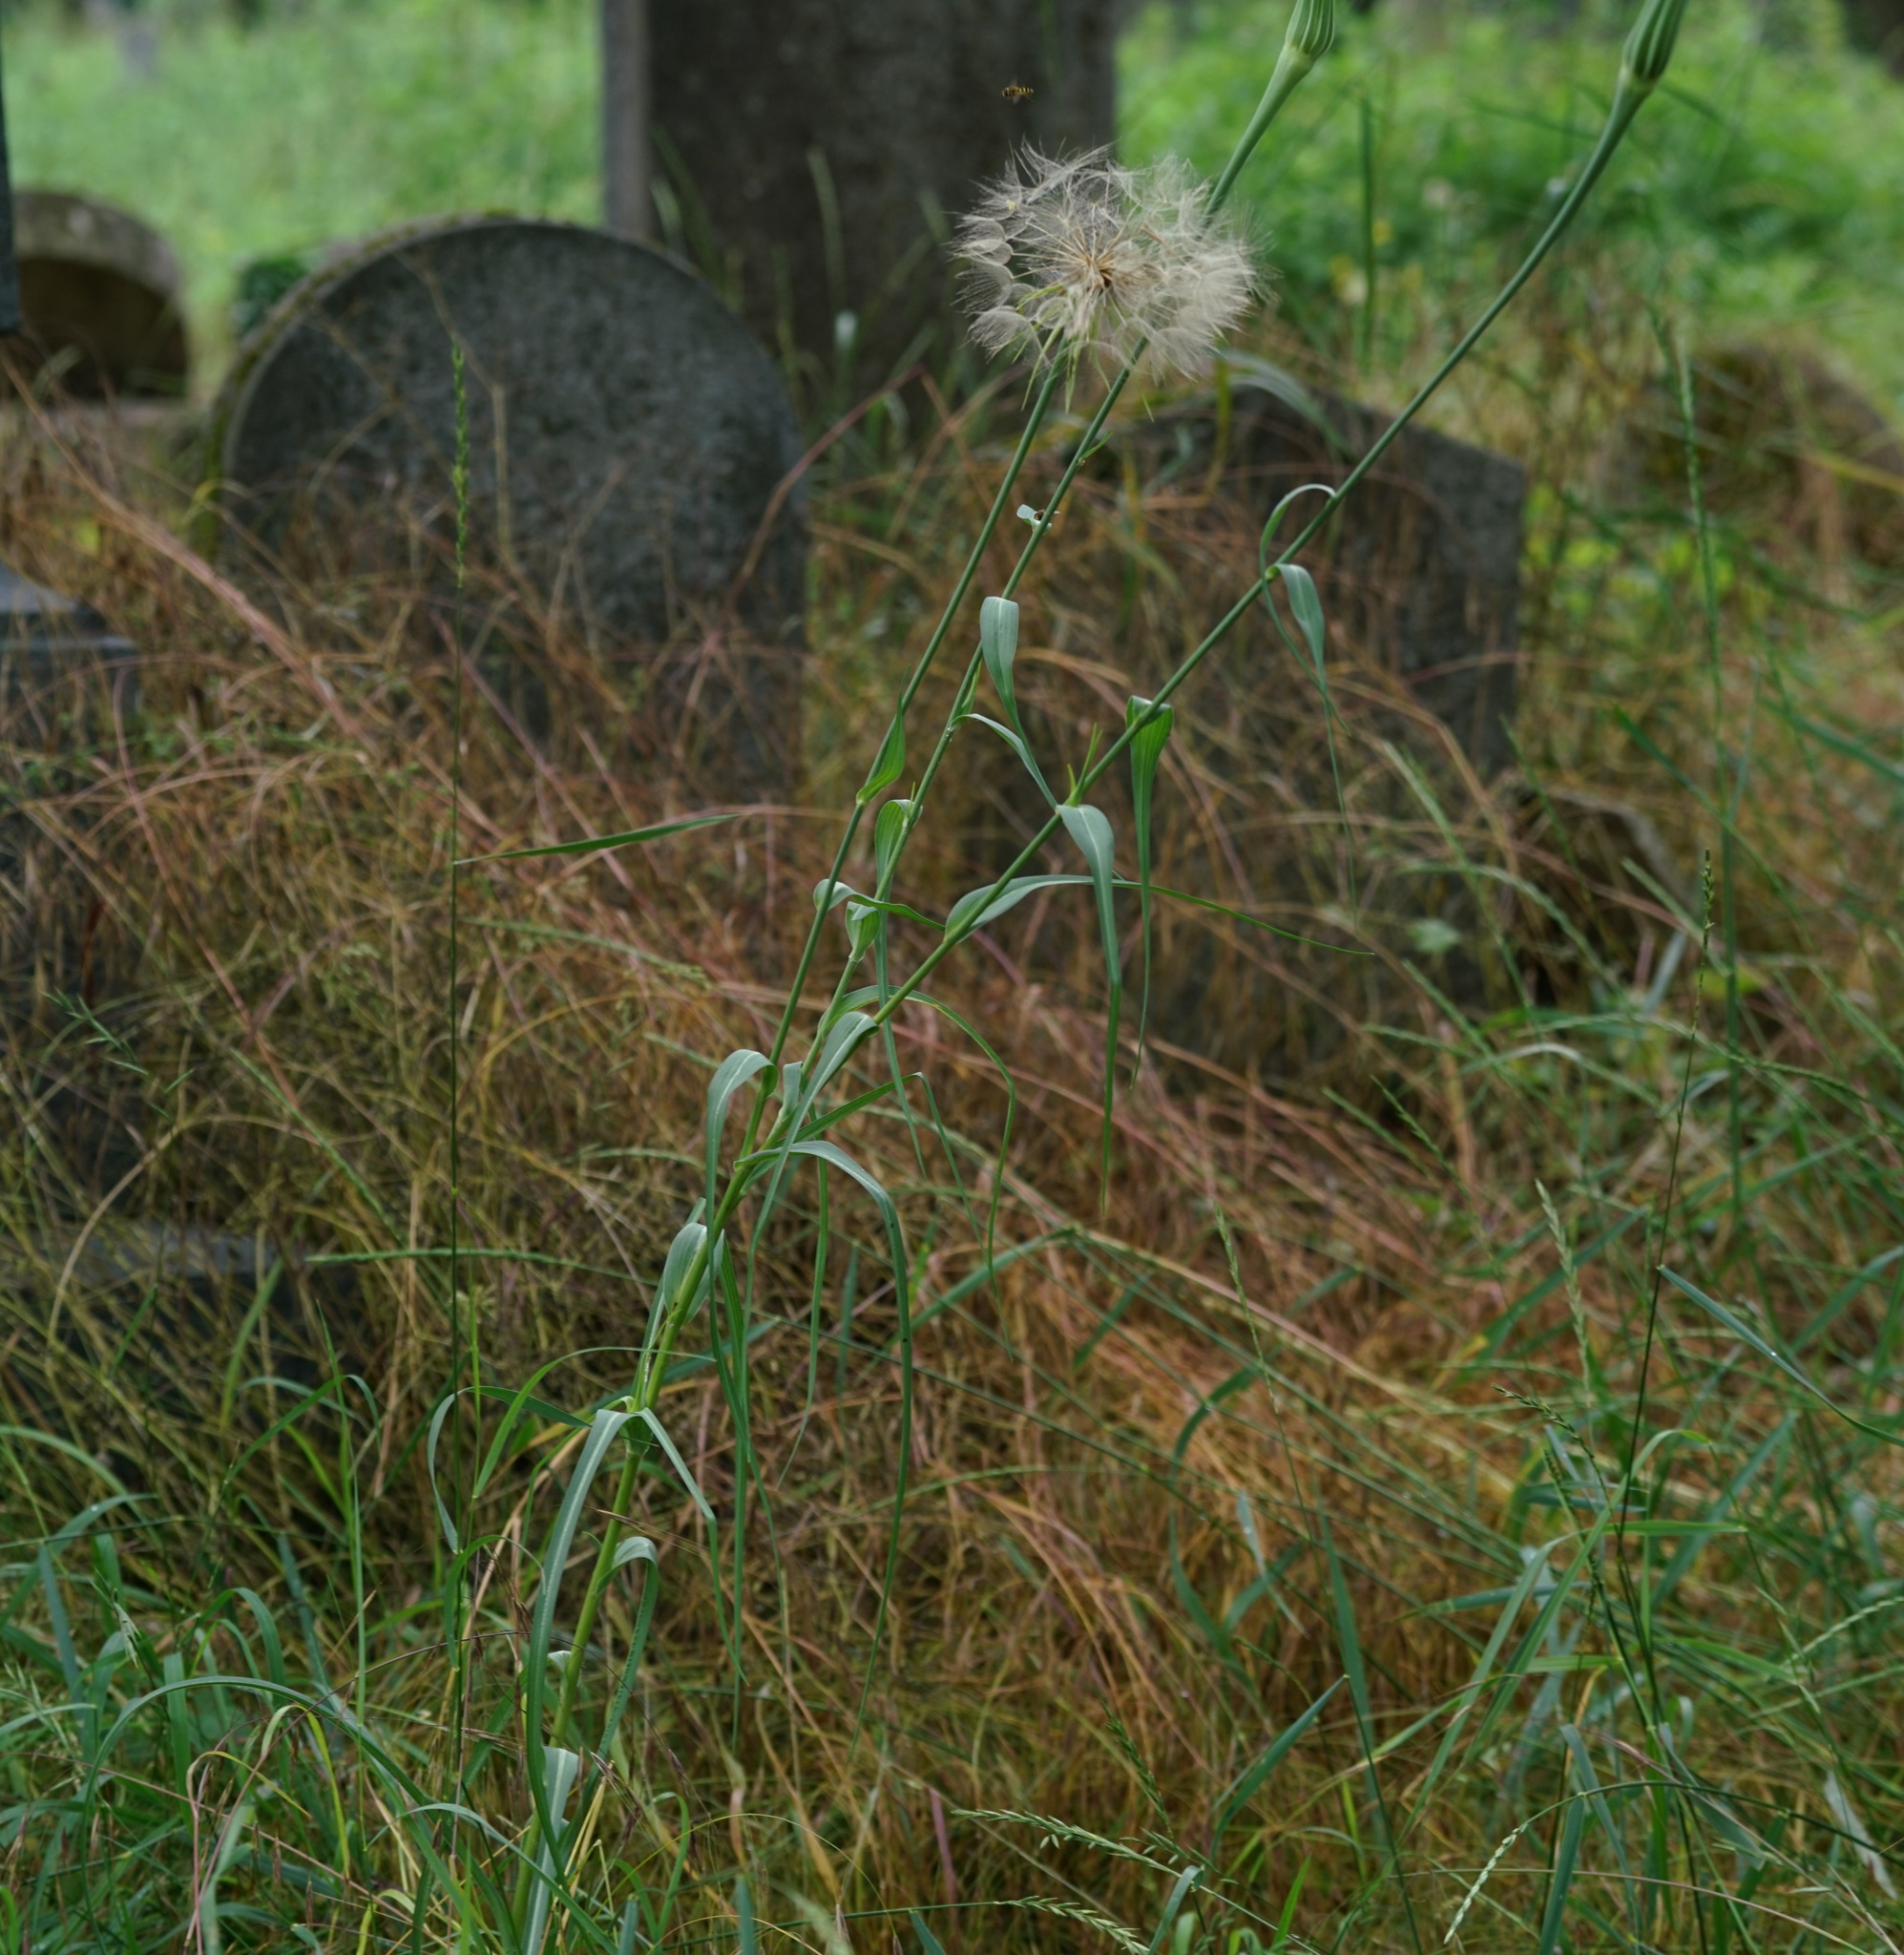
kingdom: Plantae
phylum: Tracheophyta
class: Magnoliopsida
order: Asterales
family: Asteraceae
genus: Tragopogon
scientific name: Tragopogon dubius
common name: Yellow salsify
